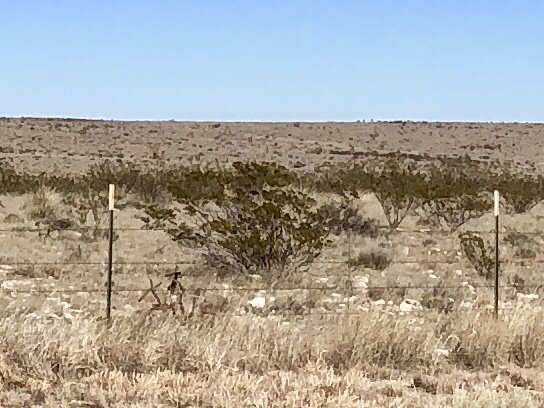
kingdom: Plantae
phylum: Tracheophyta
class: Magnoliopsida
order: Zygophyllales
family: Zygophyllaceae
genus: Larrea
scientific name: Larrea tridentata
